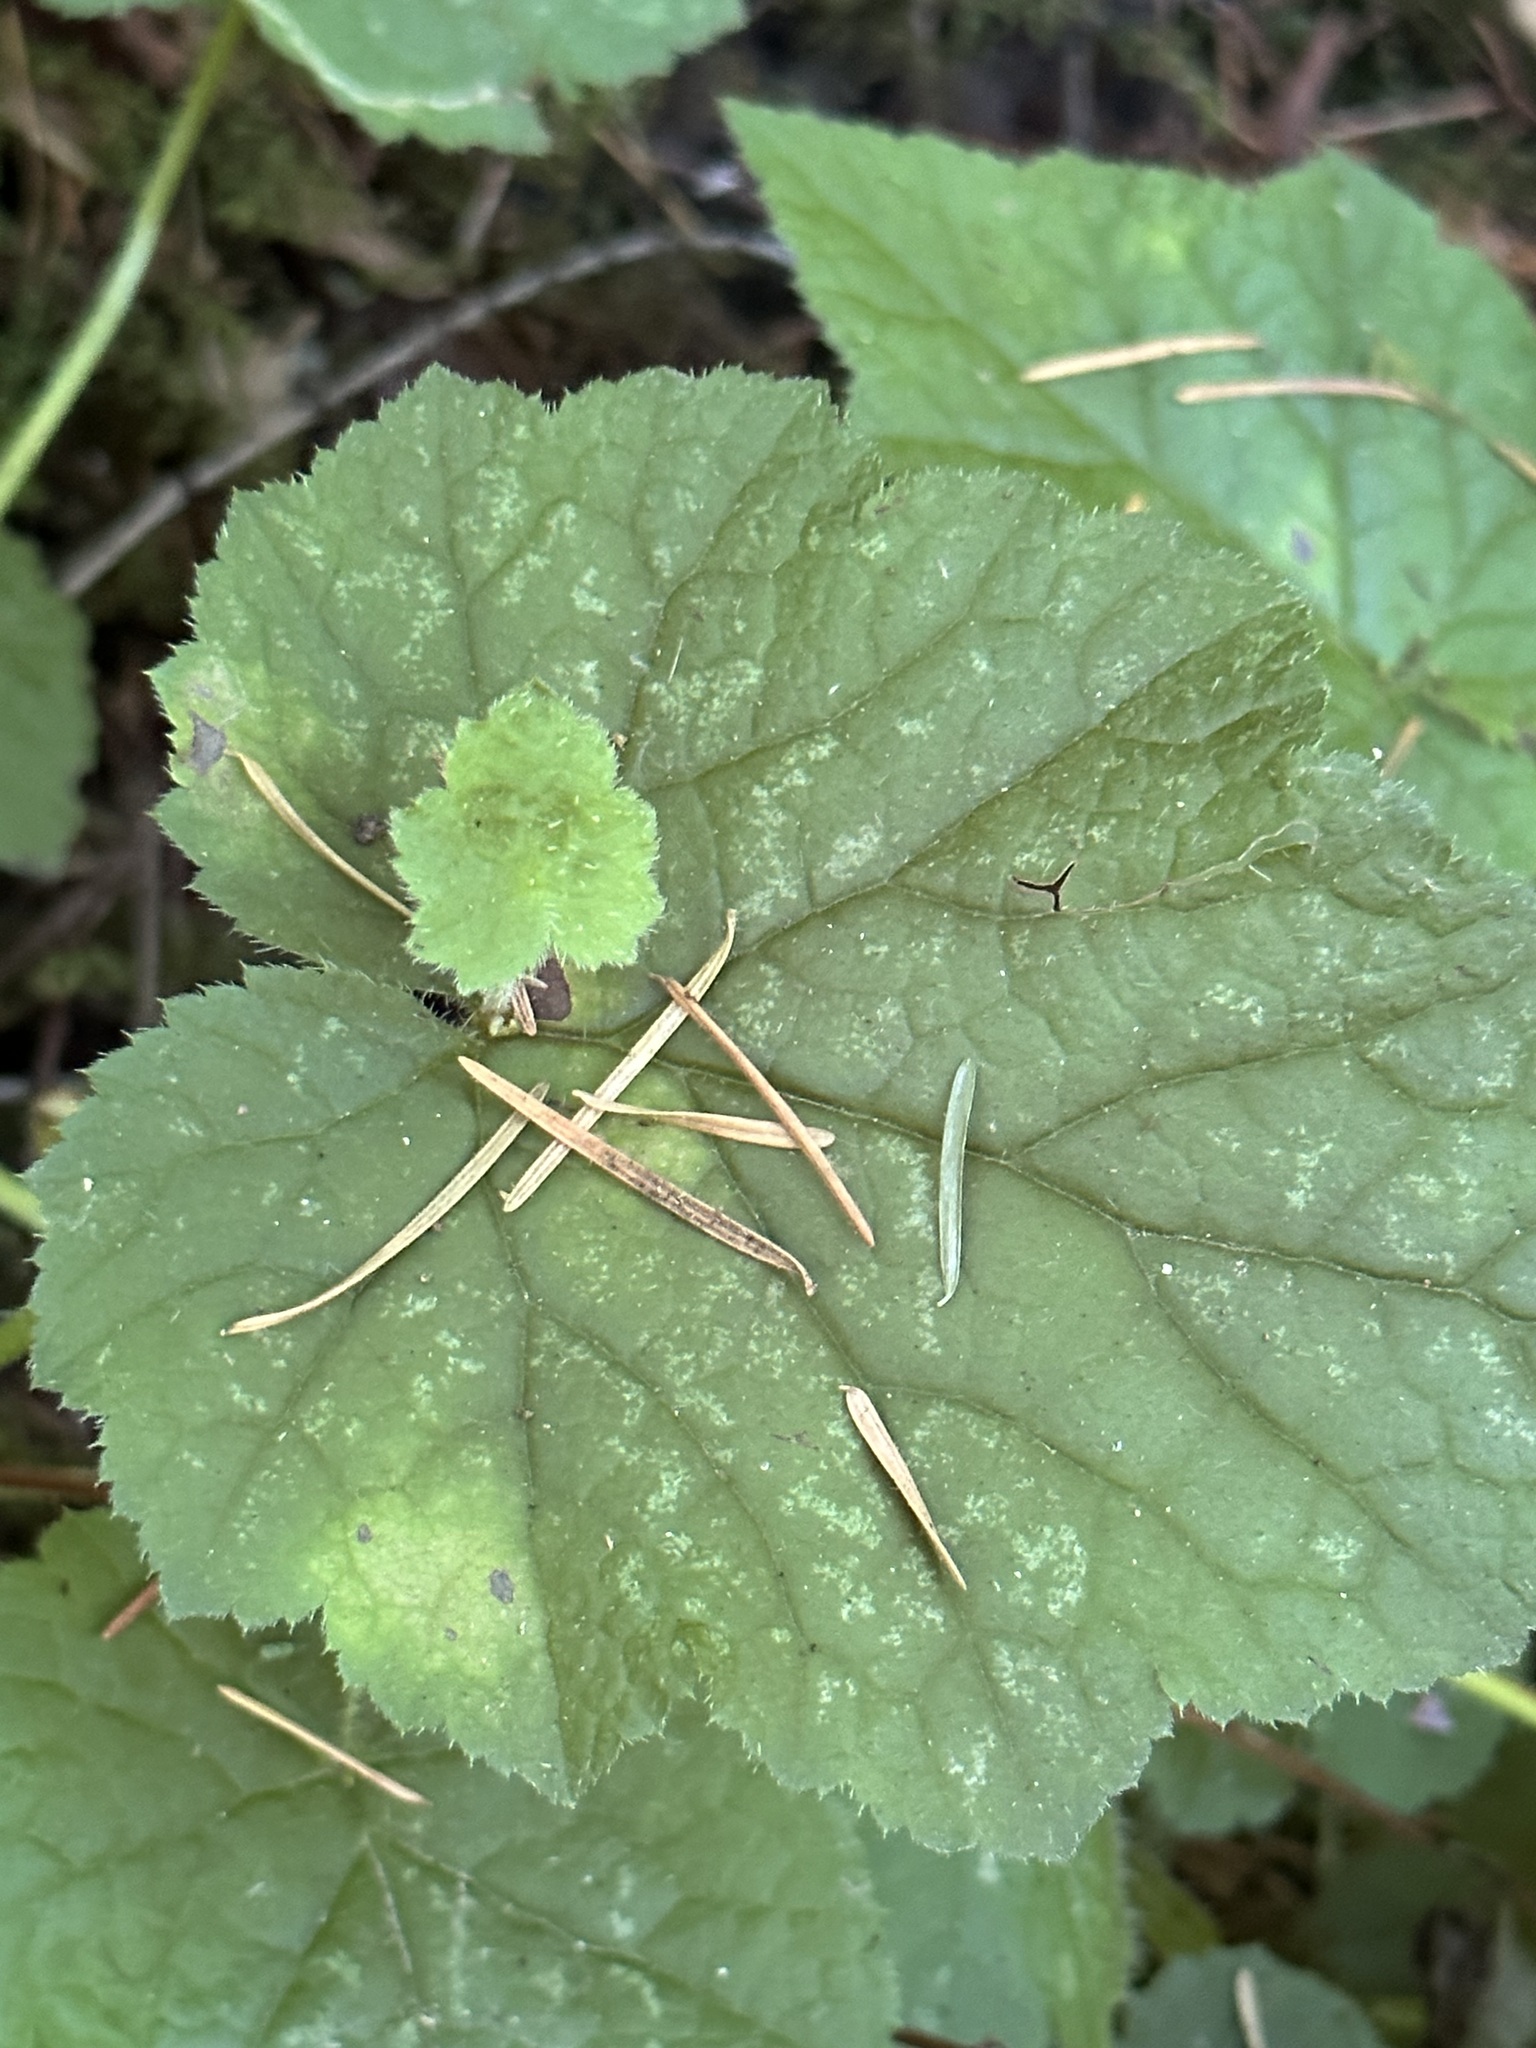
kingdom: Plantae
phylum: Tracheophyta
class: Magnoliopsida
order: Saxifragales
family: Saxifragaceae
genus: Tolmiea
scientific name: Tolmiea menziesii
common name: Pick-a-back-plant
